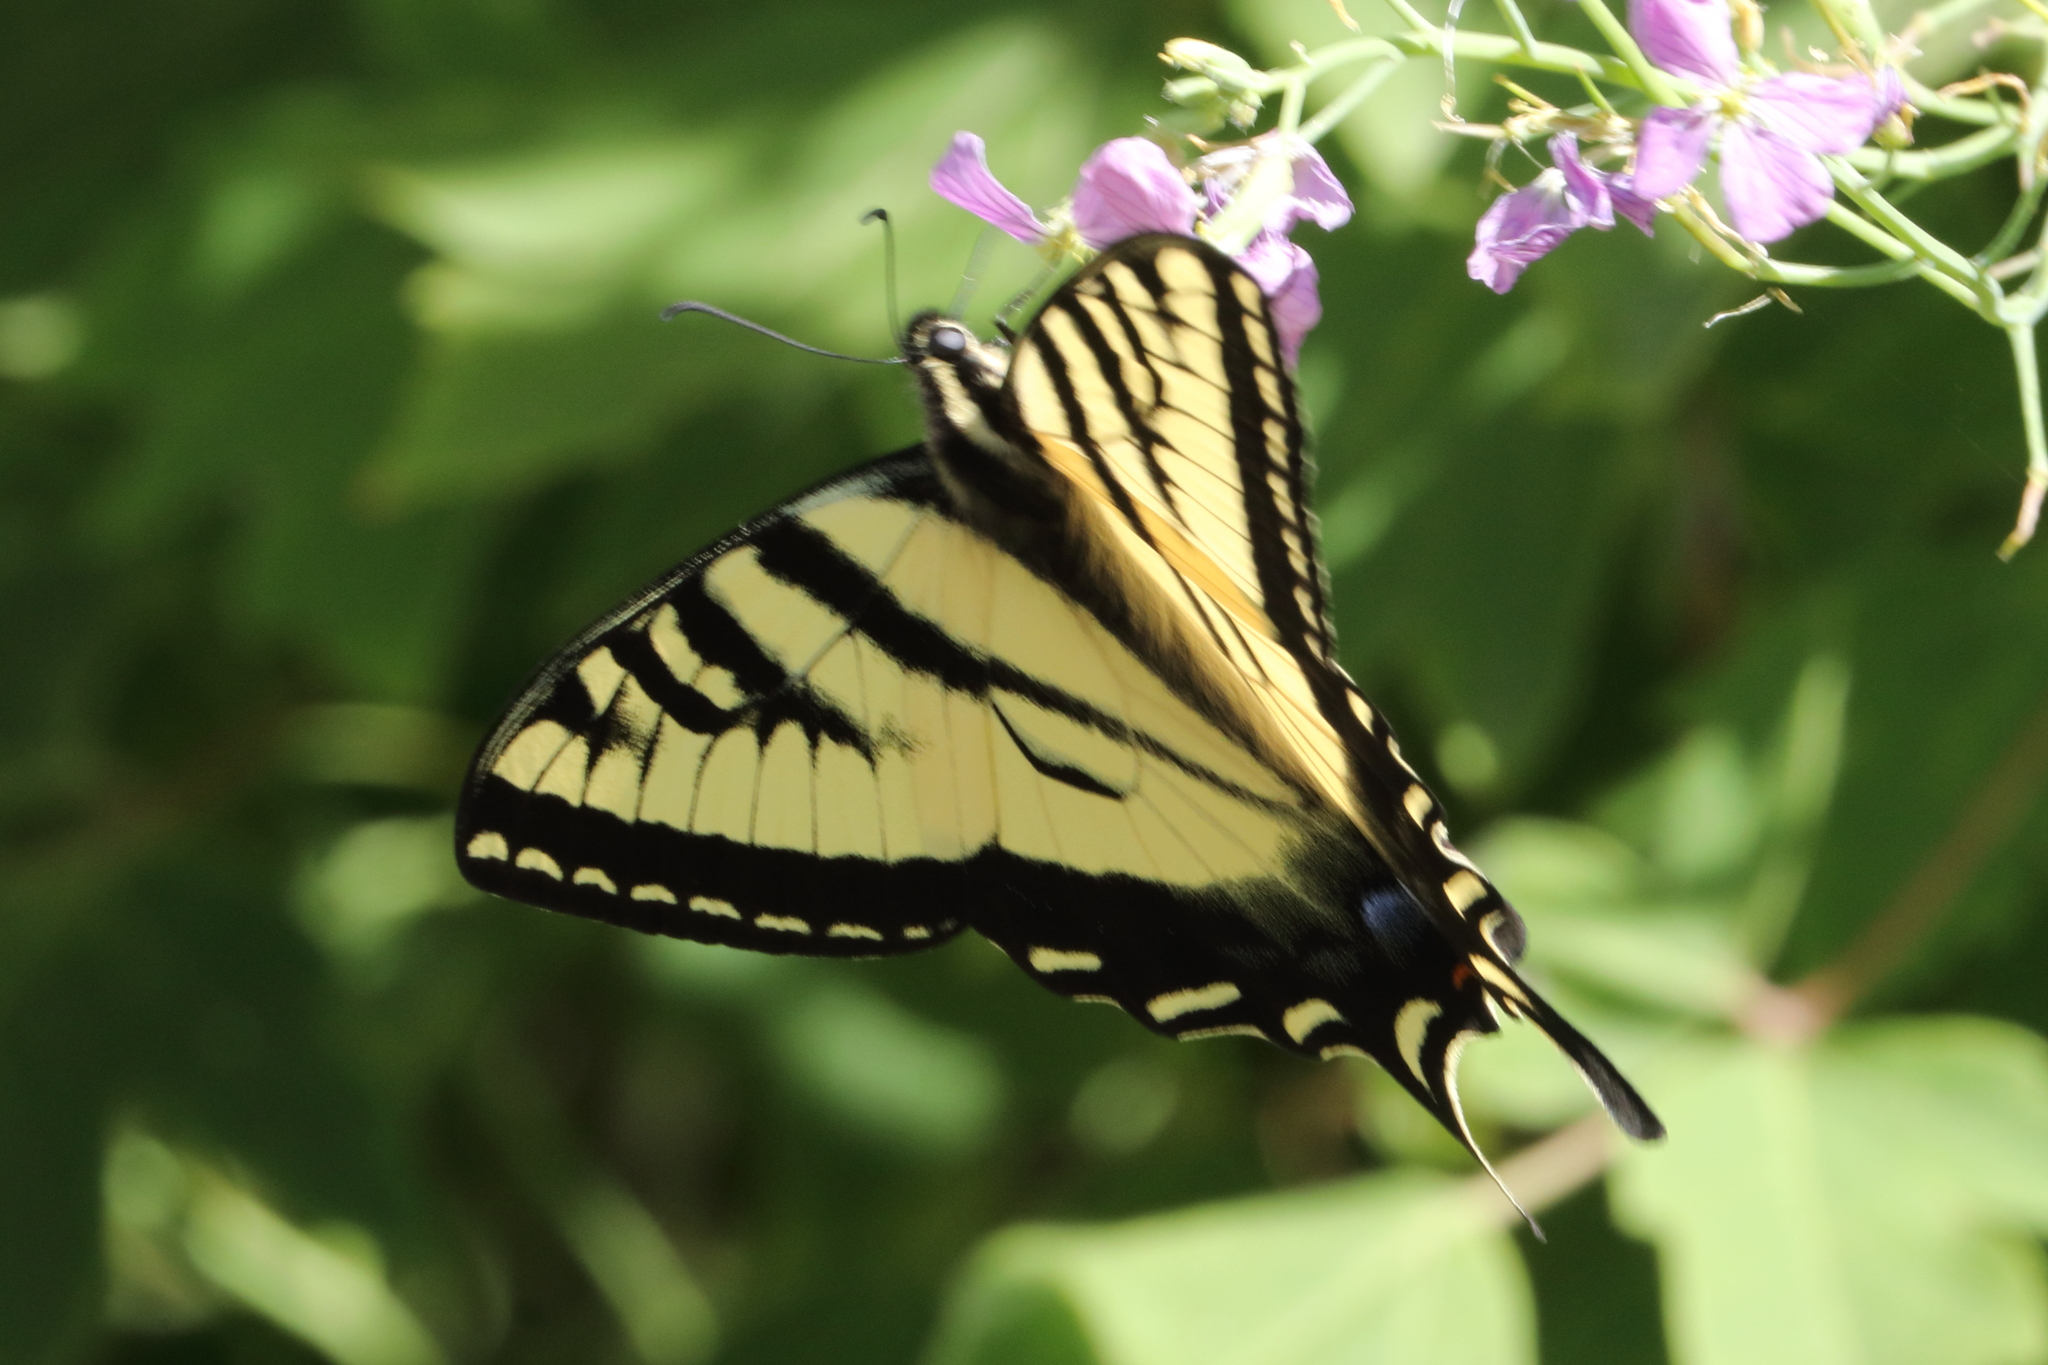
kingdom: Animalia
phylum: Arthropoda
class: Insecta
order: Lepidoptera
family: Papilionidae
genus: Papilio
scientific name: Papilio rutulus
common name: Western tiger swallowtail
